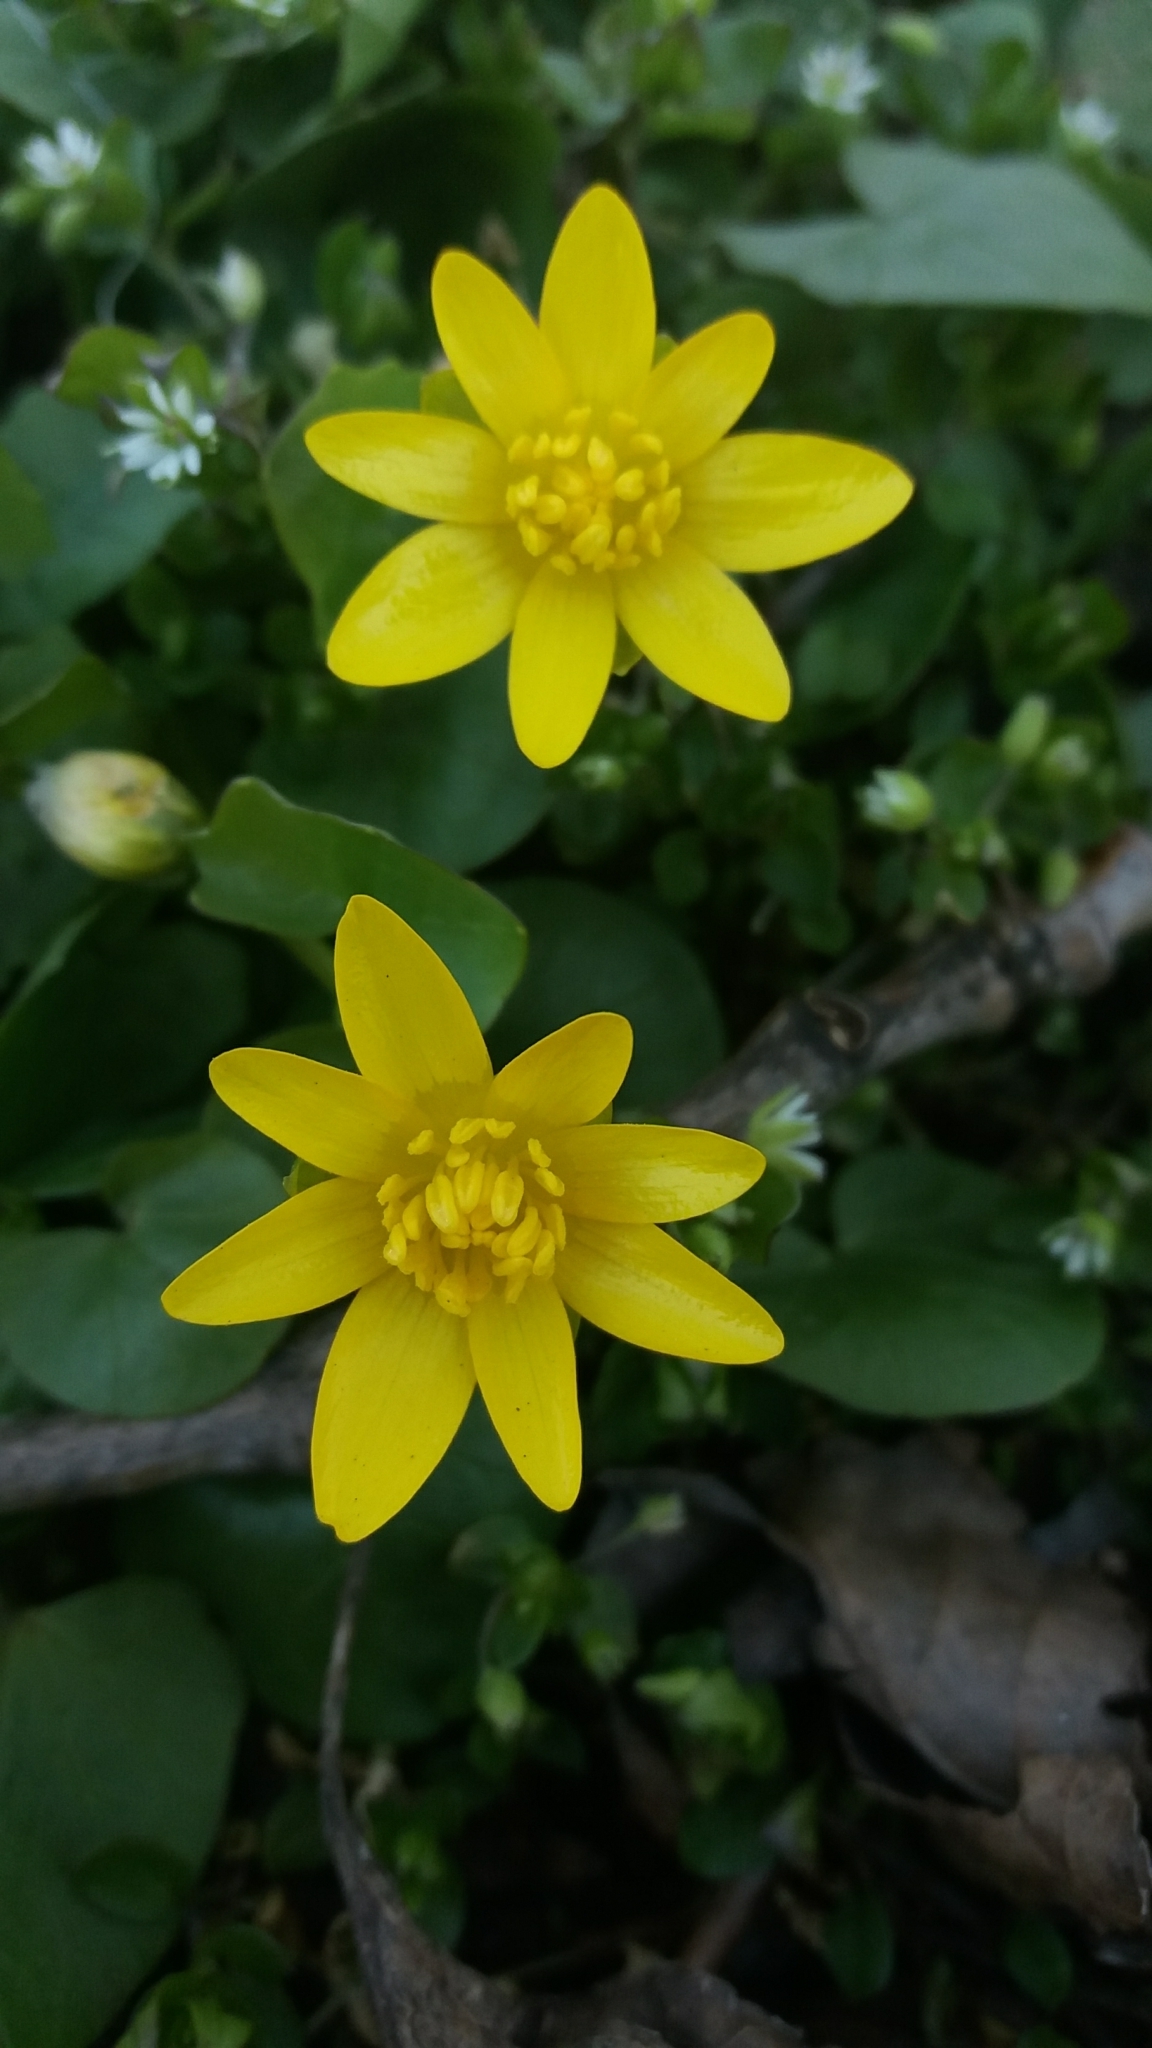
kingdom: Plantae
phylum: Tracheophyta
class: Magnoliopsida
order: Ranunculales
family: Ranunculaceae
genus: Ficaria
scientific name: Ficaria verna
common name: Lesser celandine
